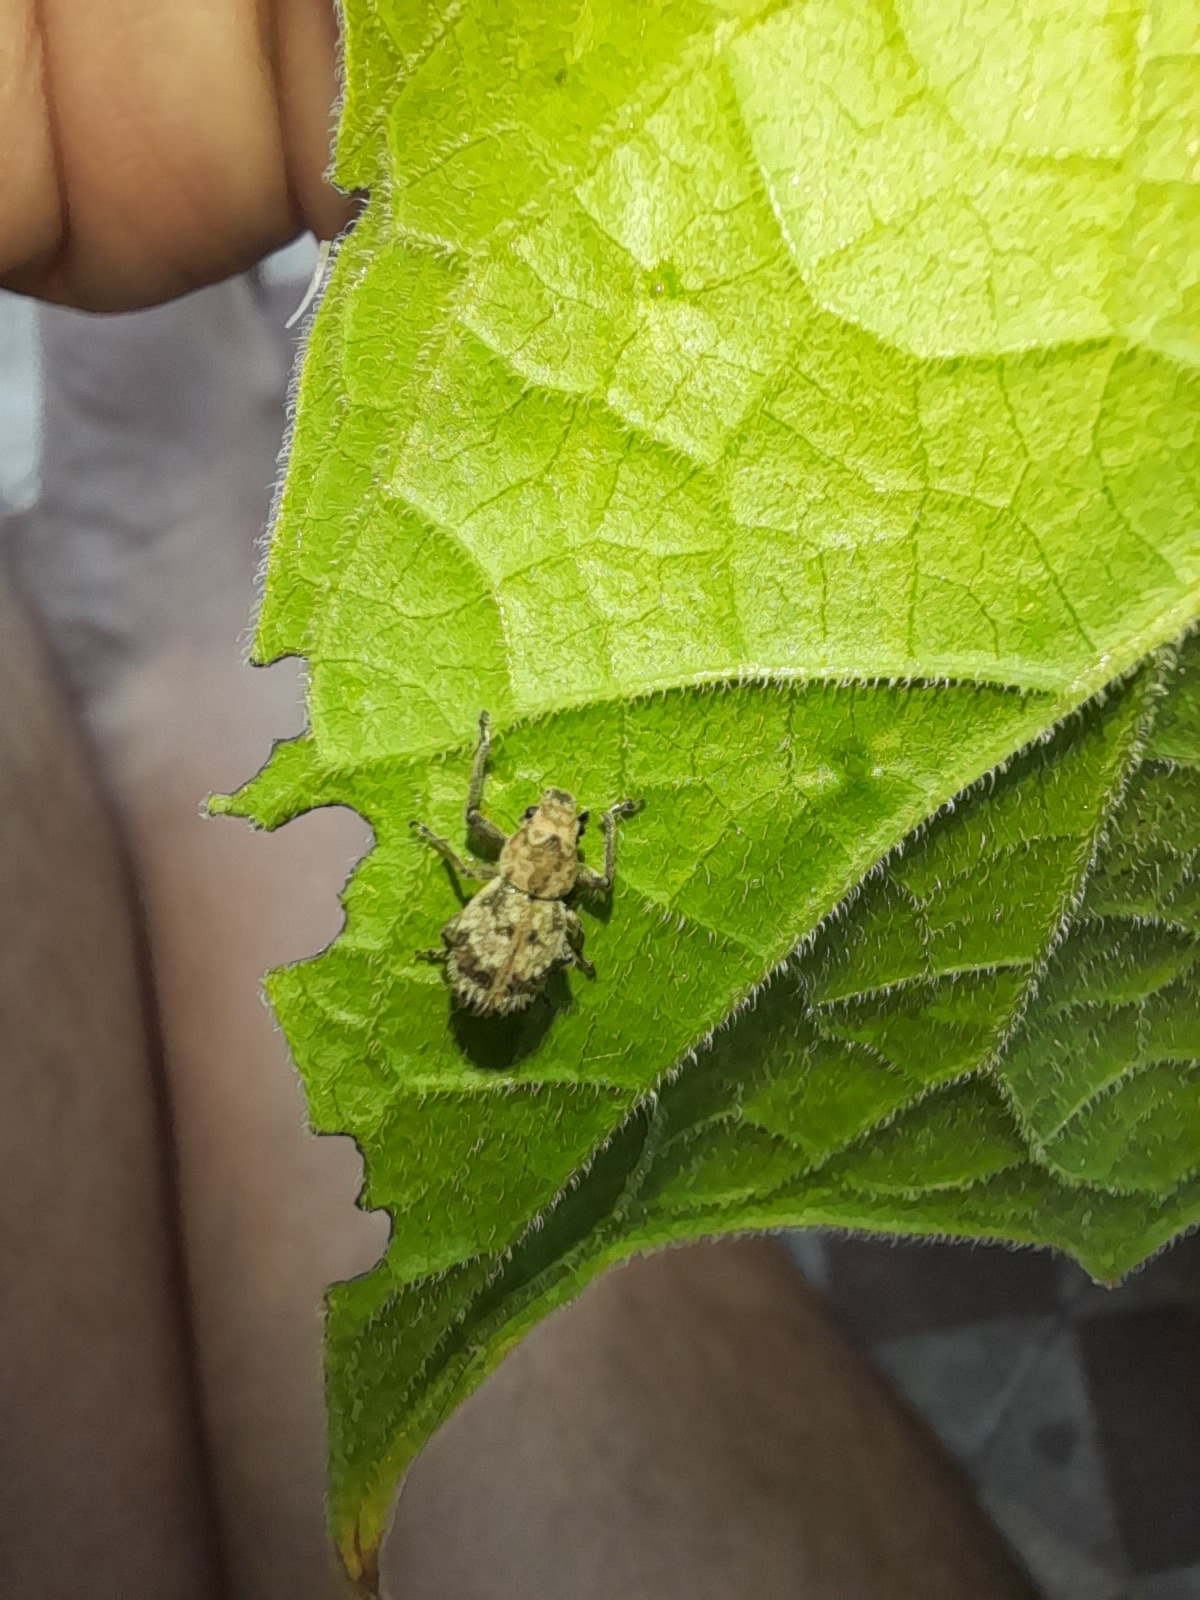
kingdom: Animalia
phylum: Arthropoda
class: Insecta
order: Coleoptera
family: Curculionidae
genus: Pantomorus
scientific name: Pantomorus
